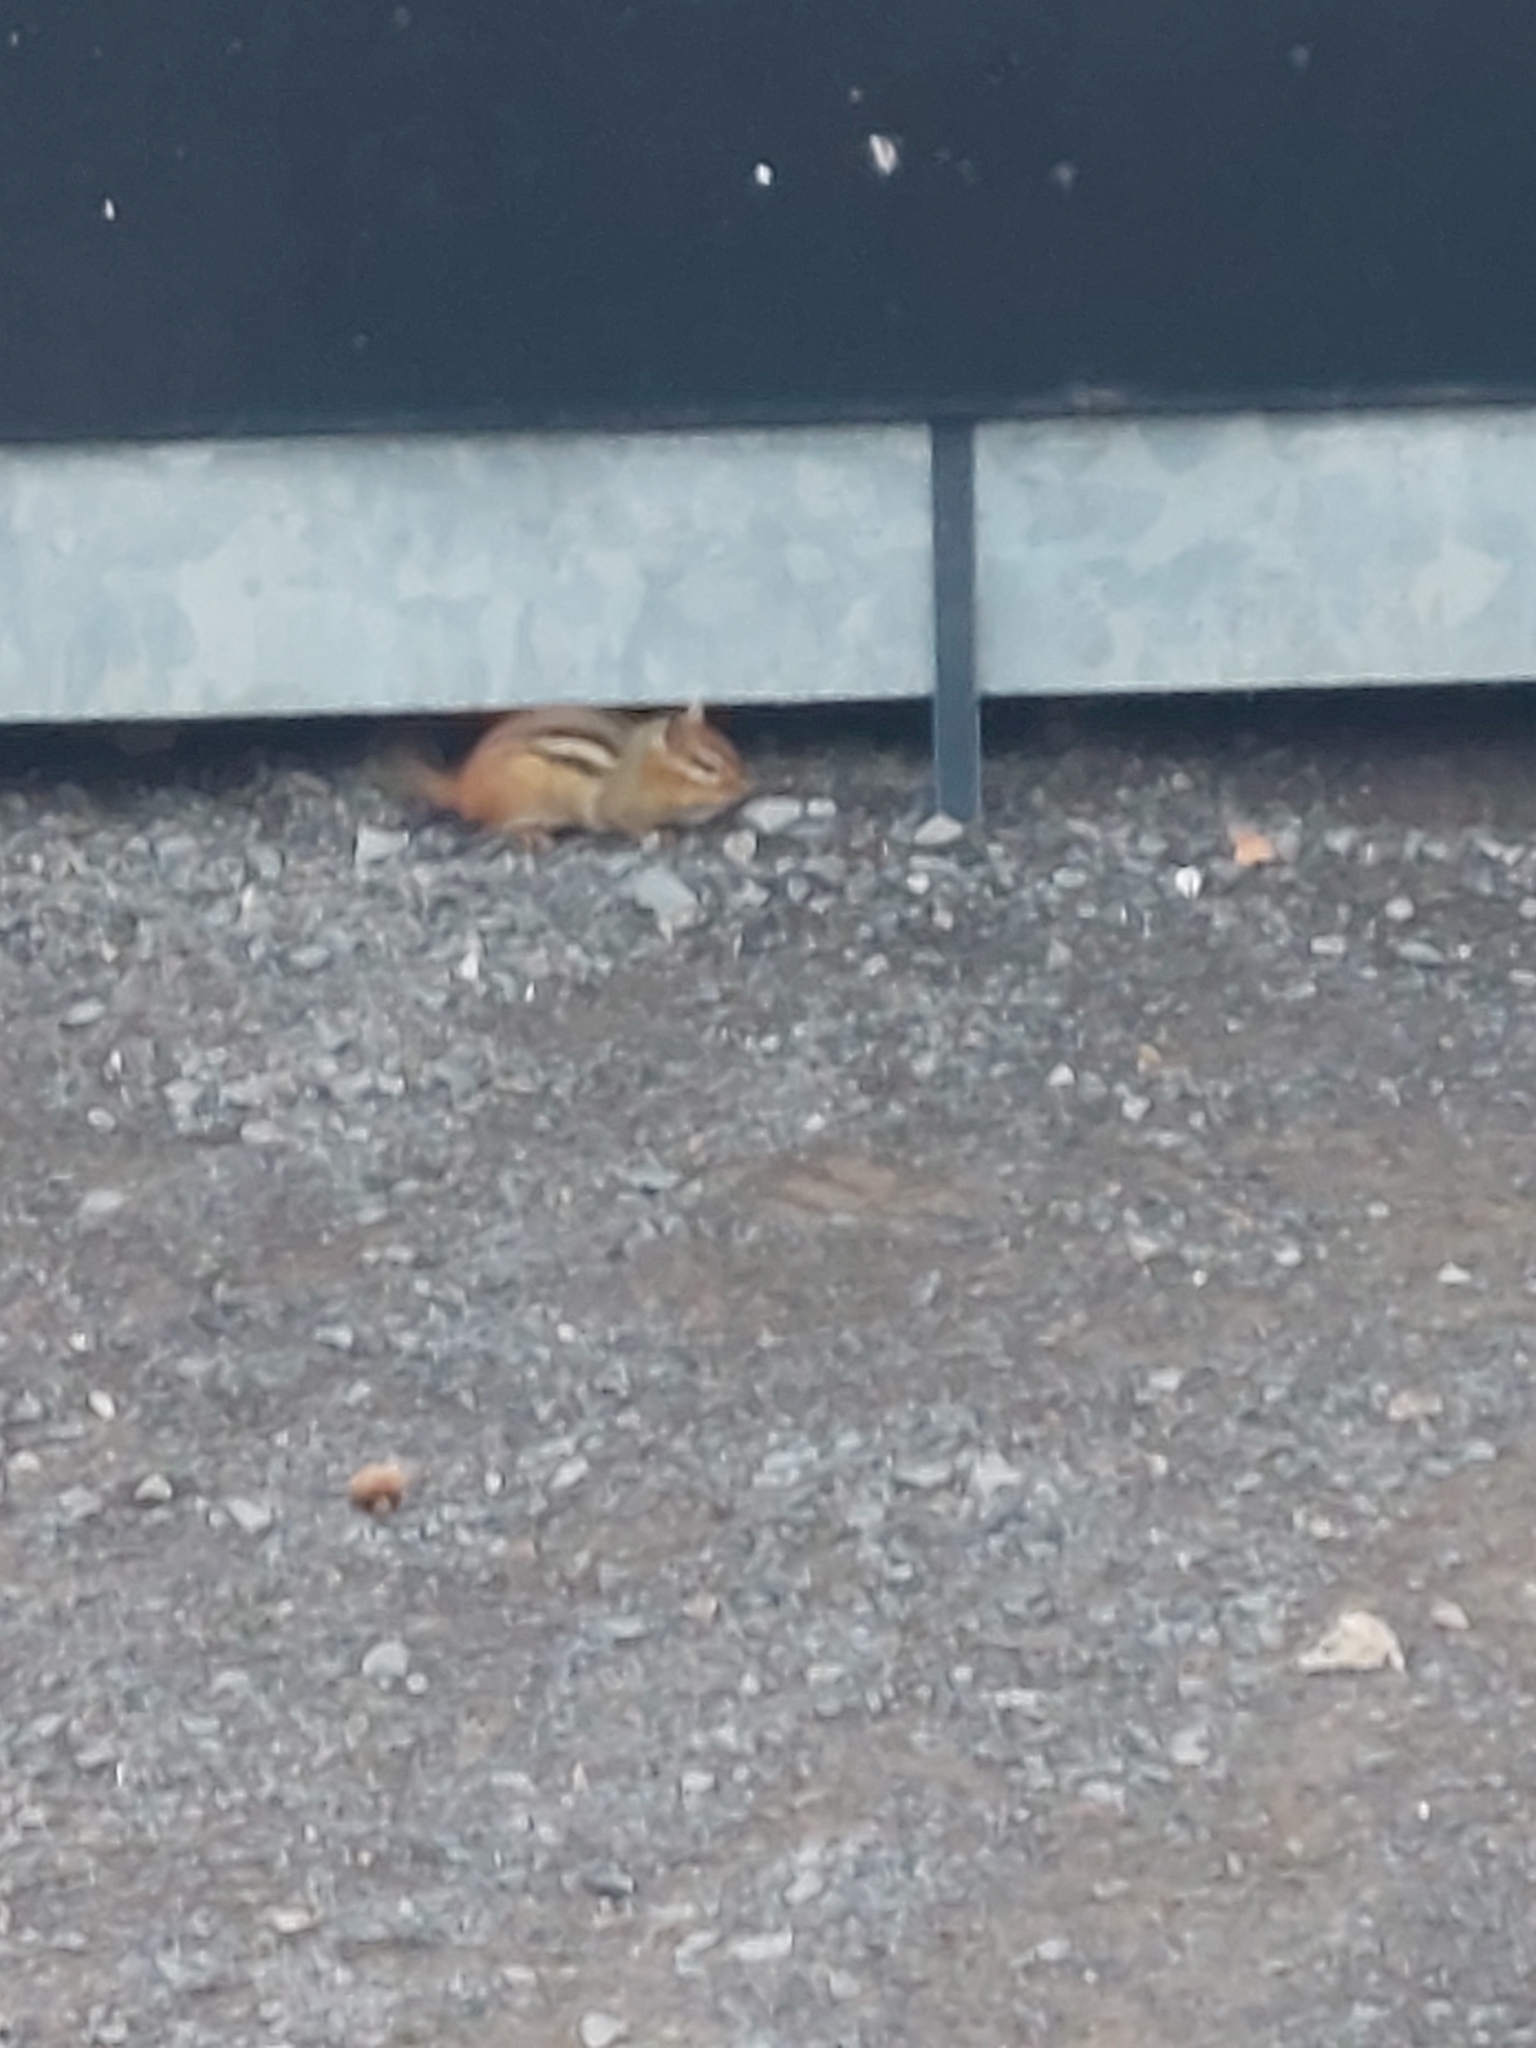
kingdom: Animalia
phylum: Chordata
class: Mammalia
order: Rodentia
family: Sciuridae
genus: Tamias
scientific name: Tamias striatus
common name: Eastern chipmunk
